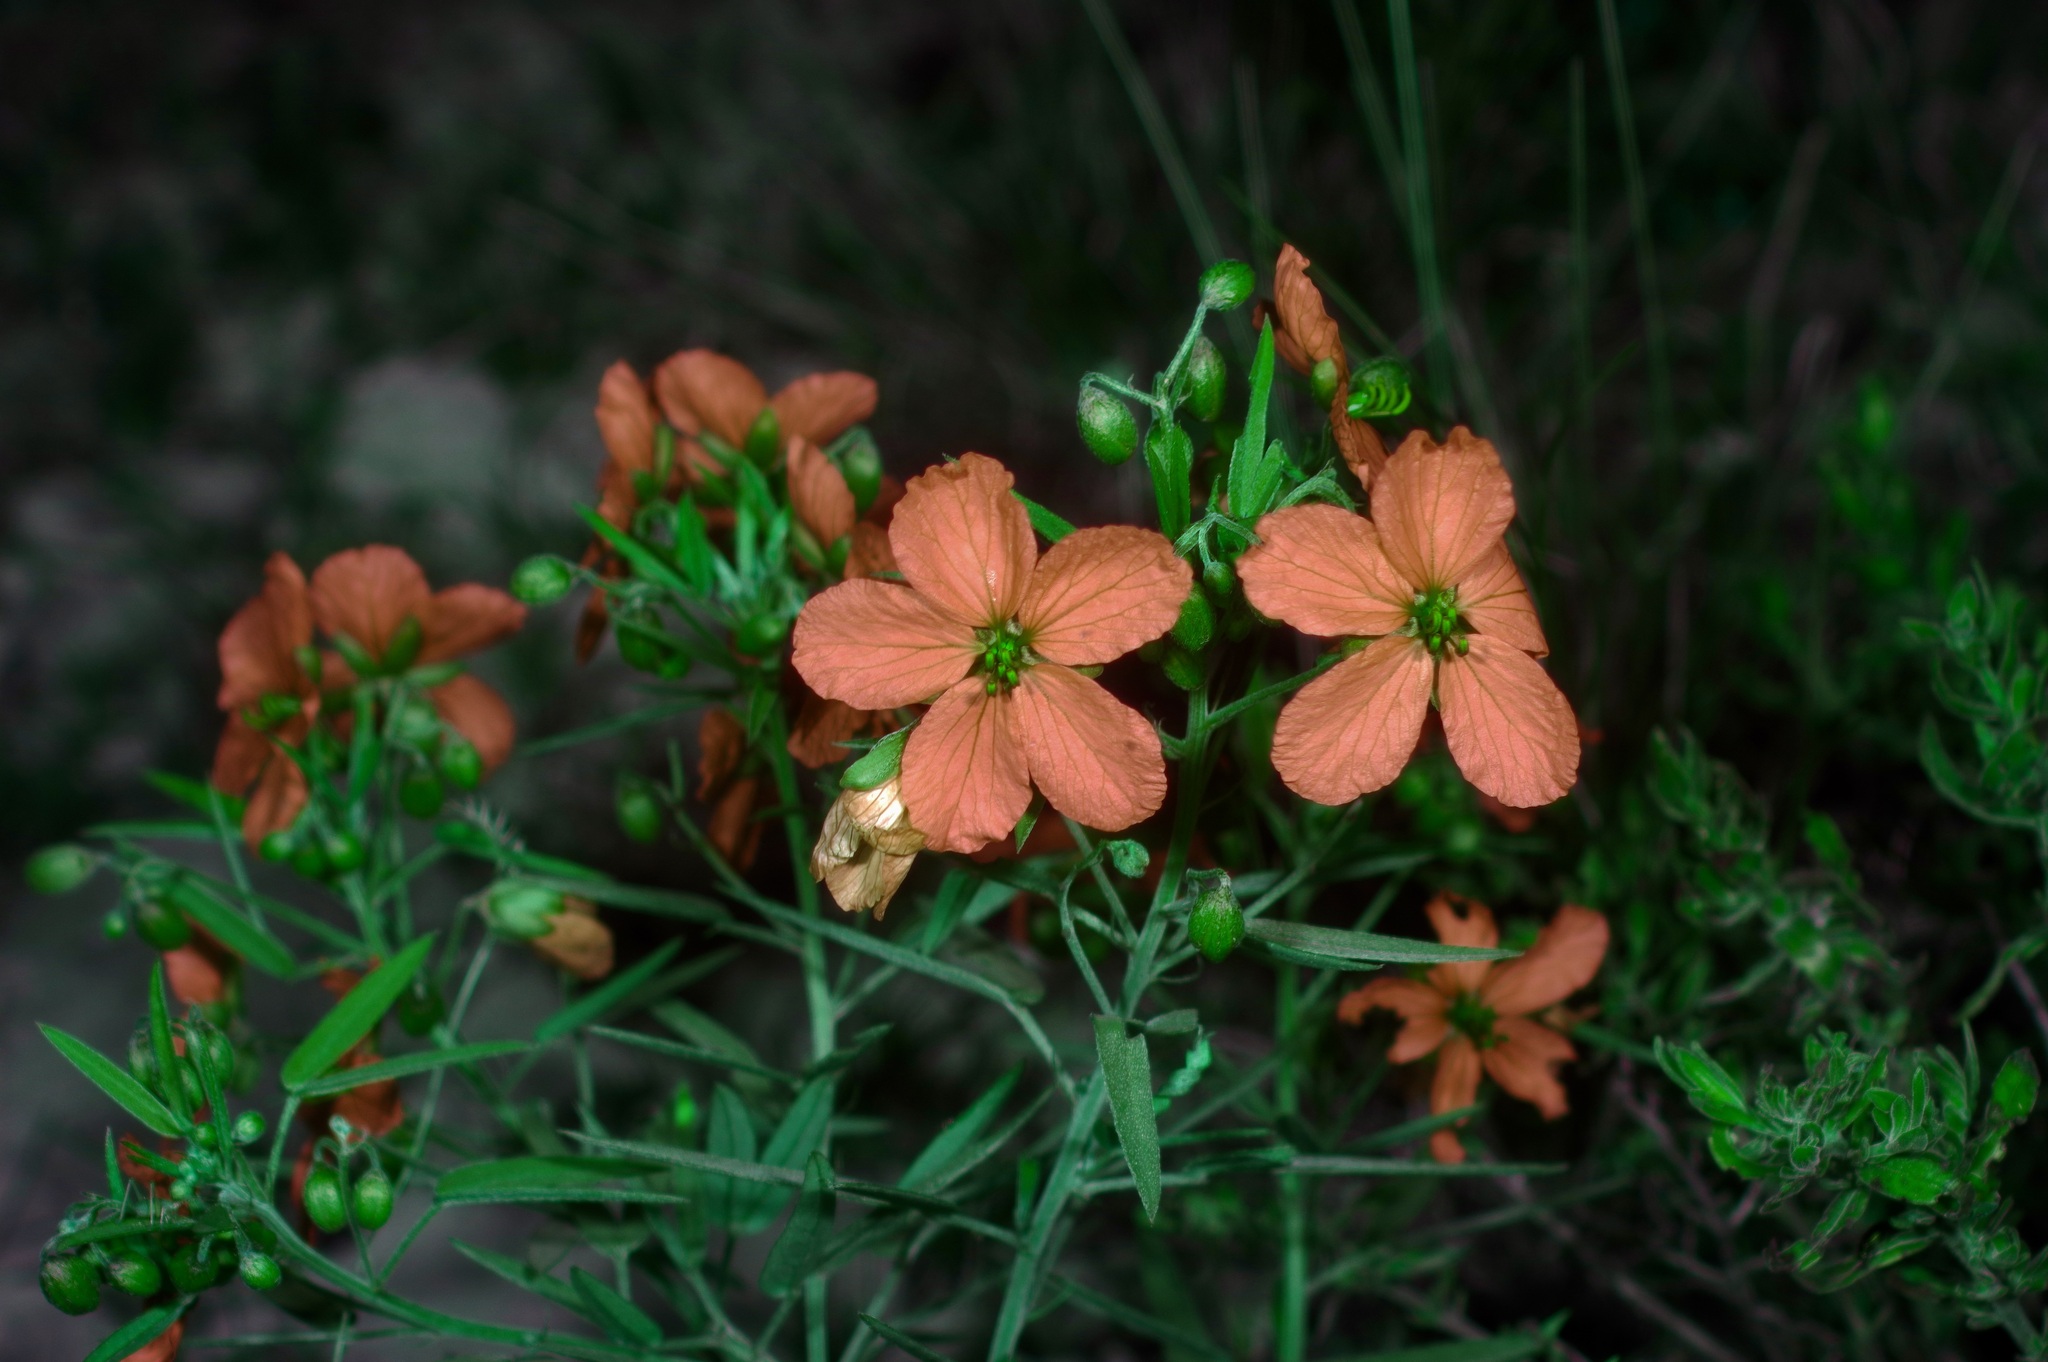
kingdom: Plantae
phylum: Tracheophyta
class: Magnoliopsida
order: Fabales
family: Fabaceae
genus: Senna
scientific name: Senna roemeriana
